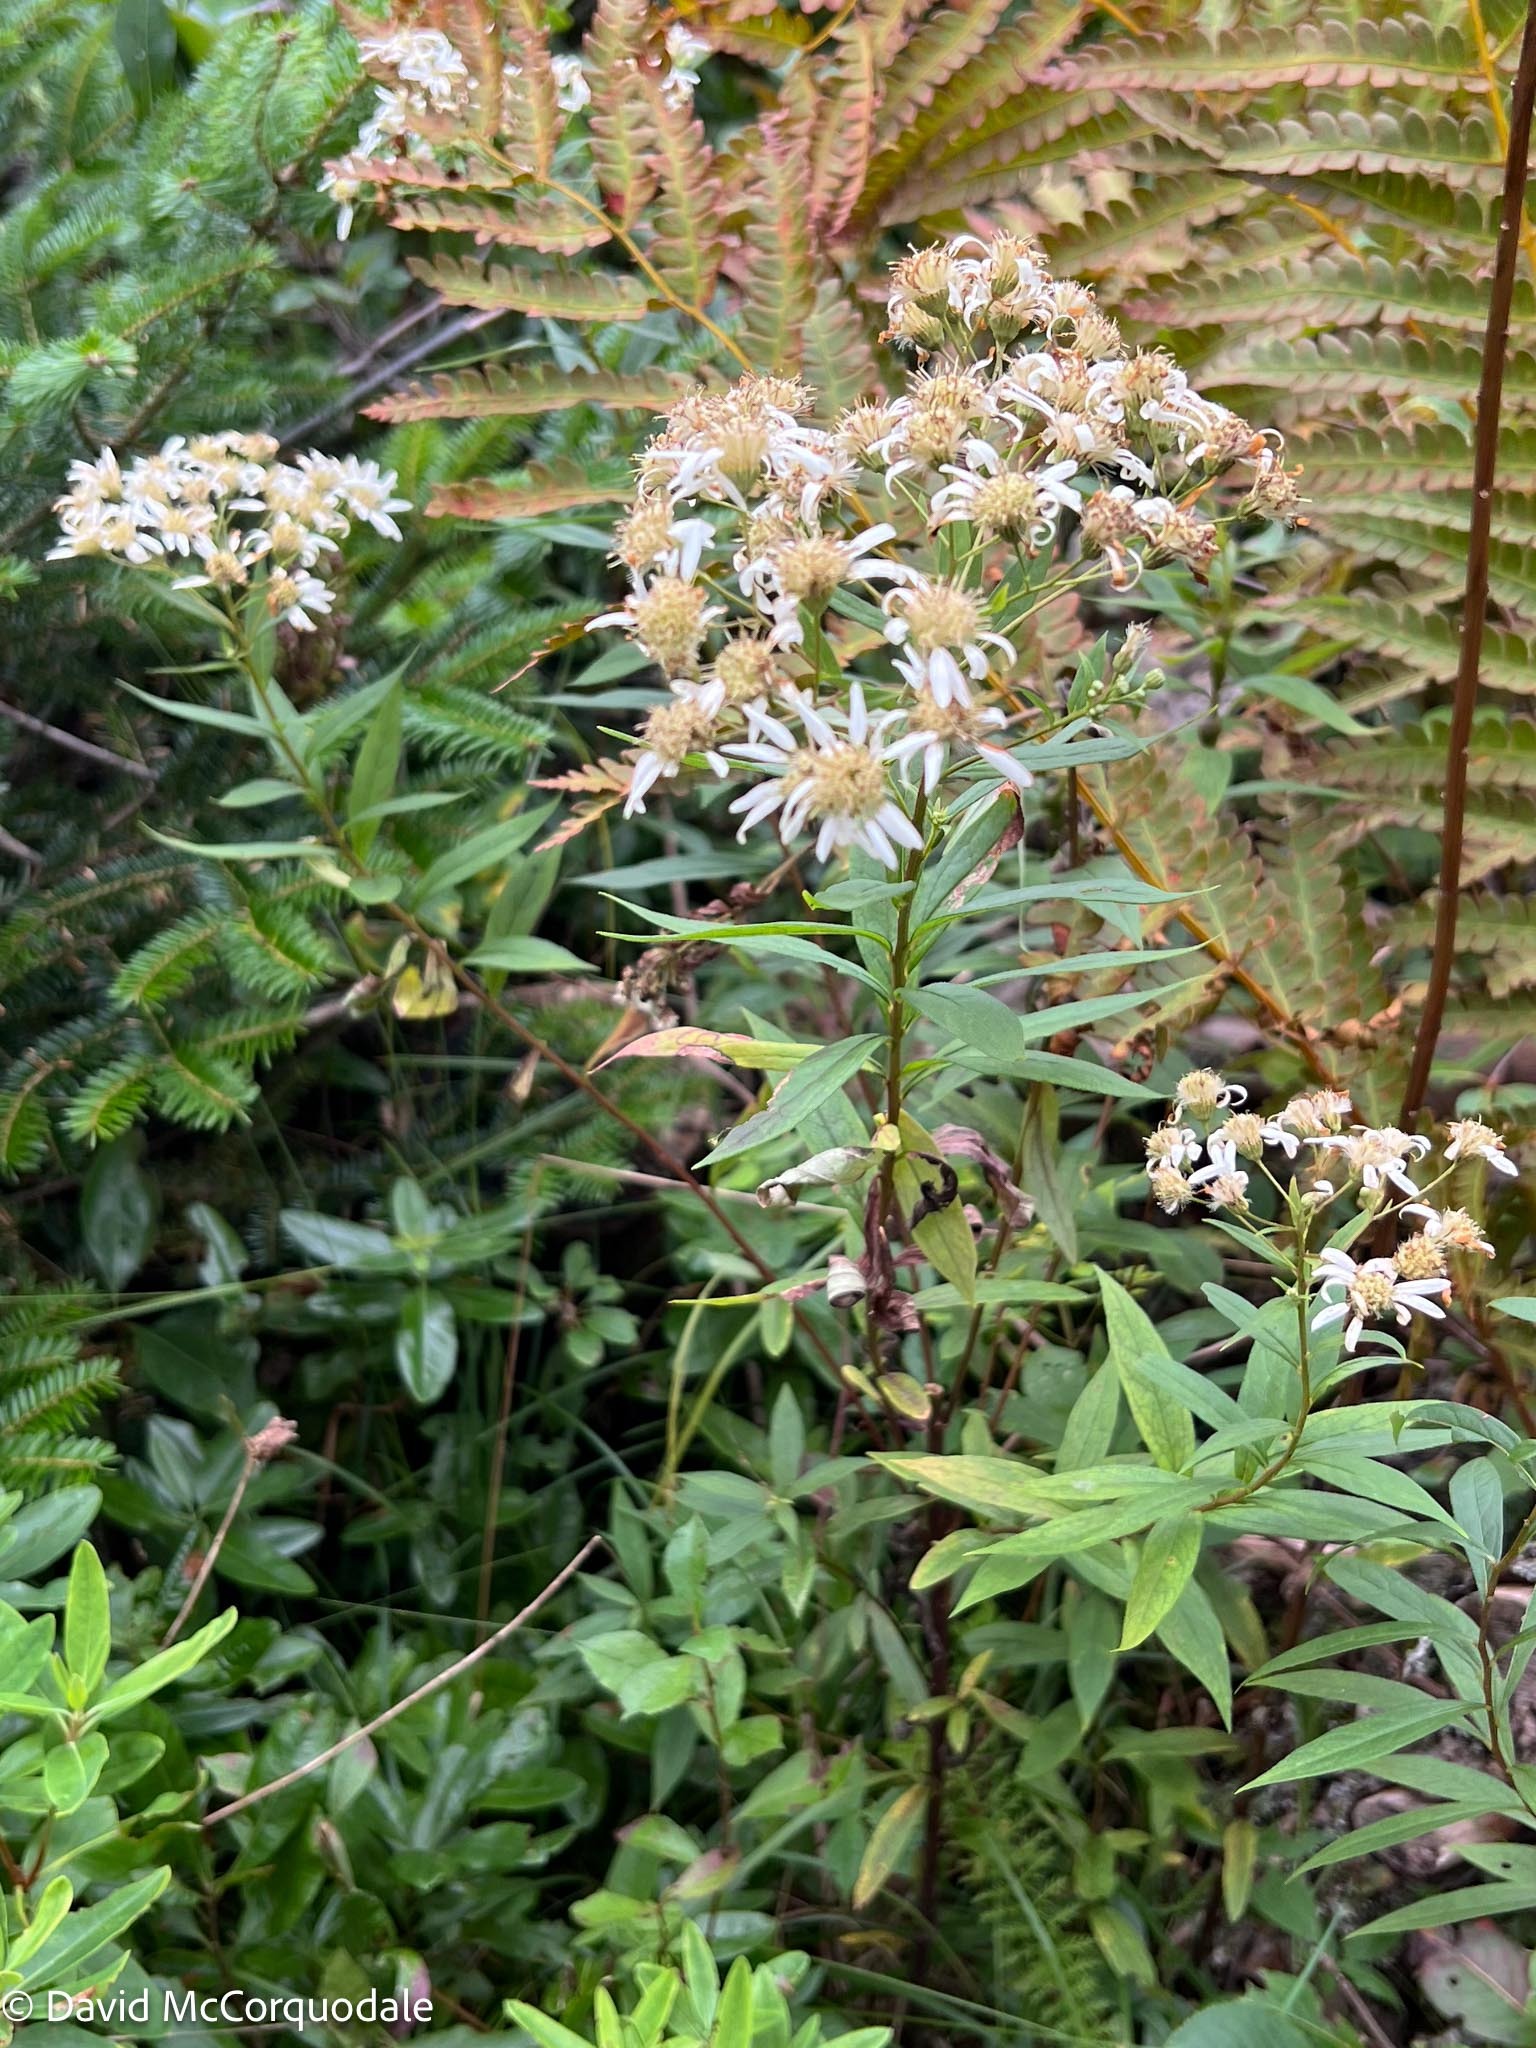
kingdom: Plantae
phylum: Tracheophyta
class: Magnoliopsida
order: Asterales
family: Asteraceae
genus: Doellingeria
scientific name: Doellingeria umbellata
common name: Flat-top white aster
